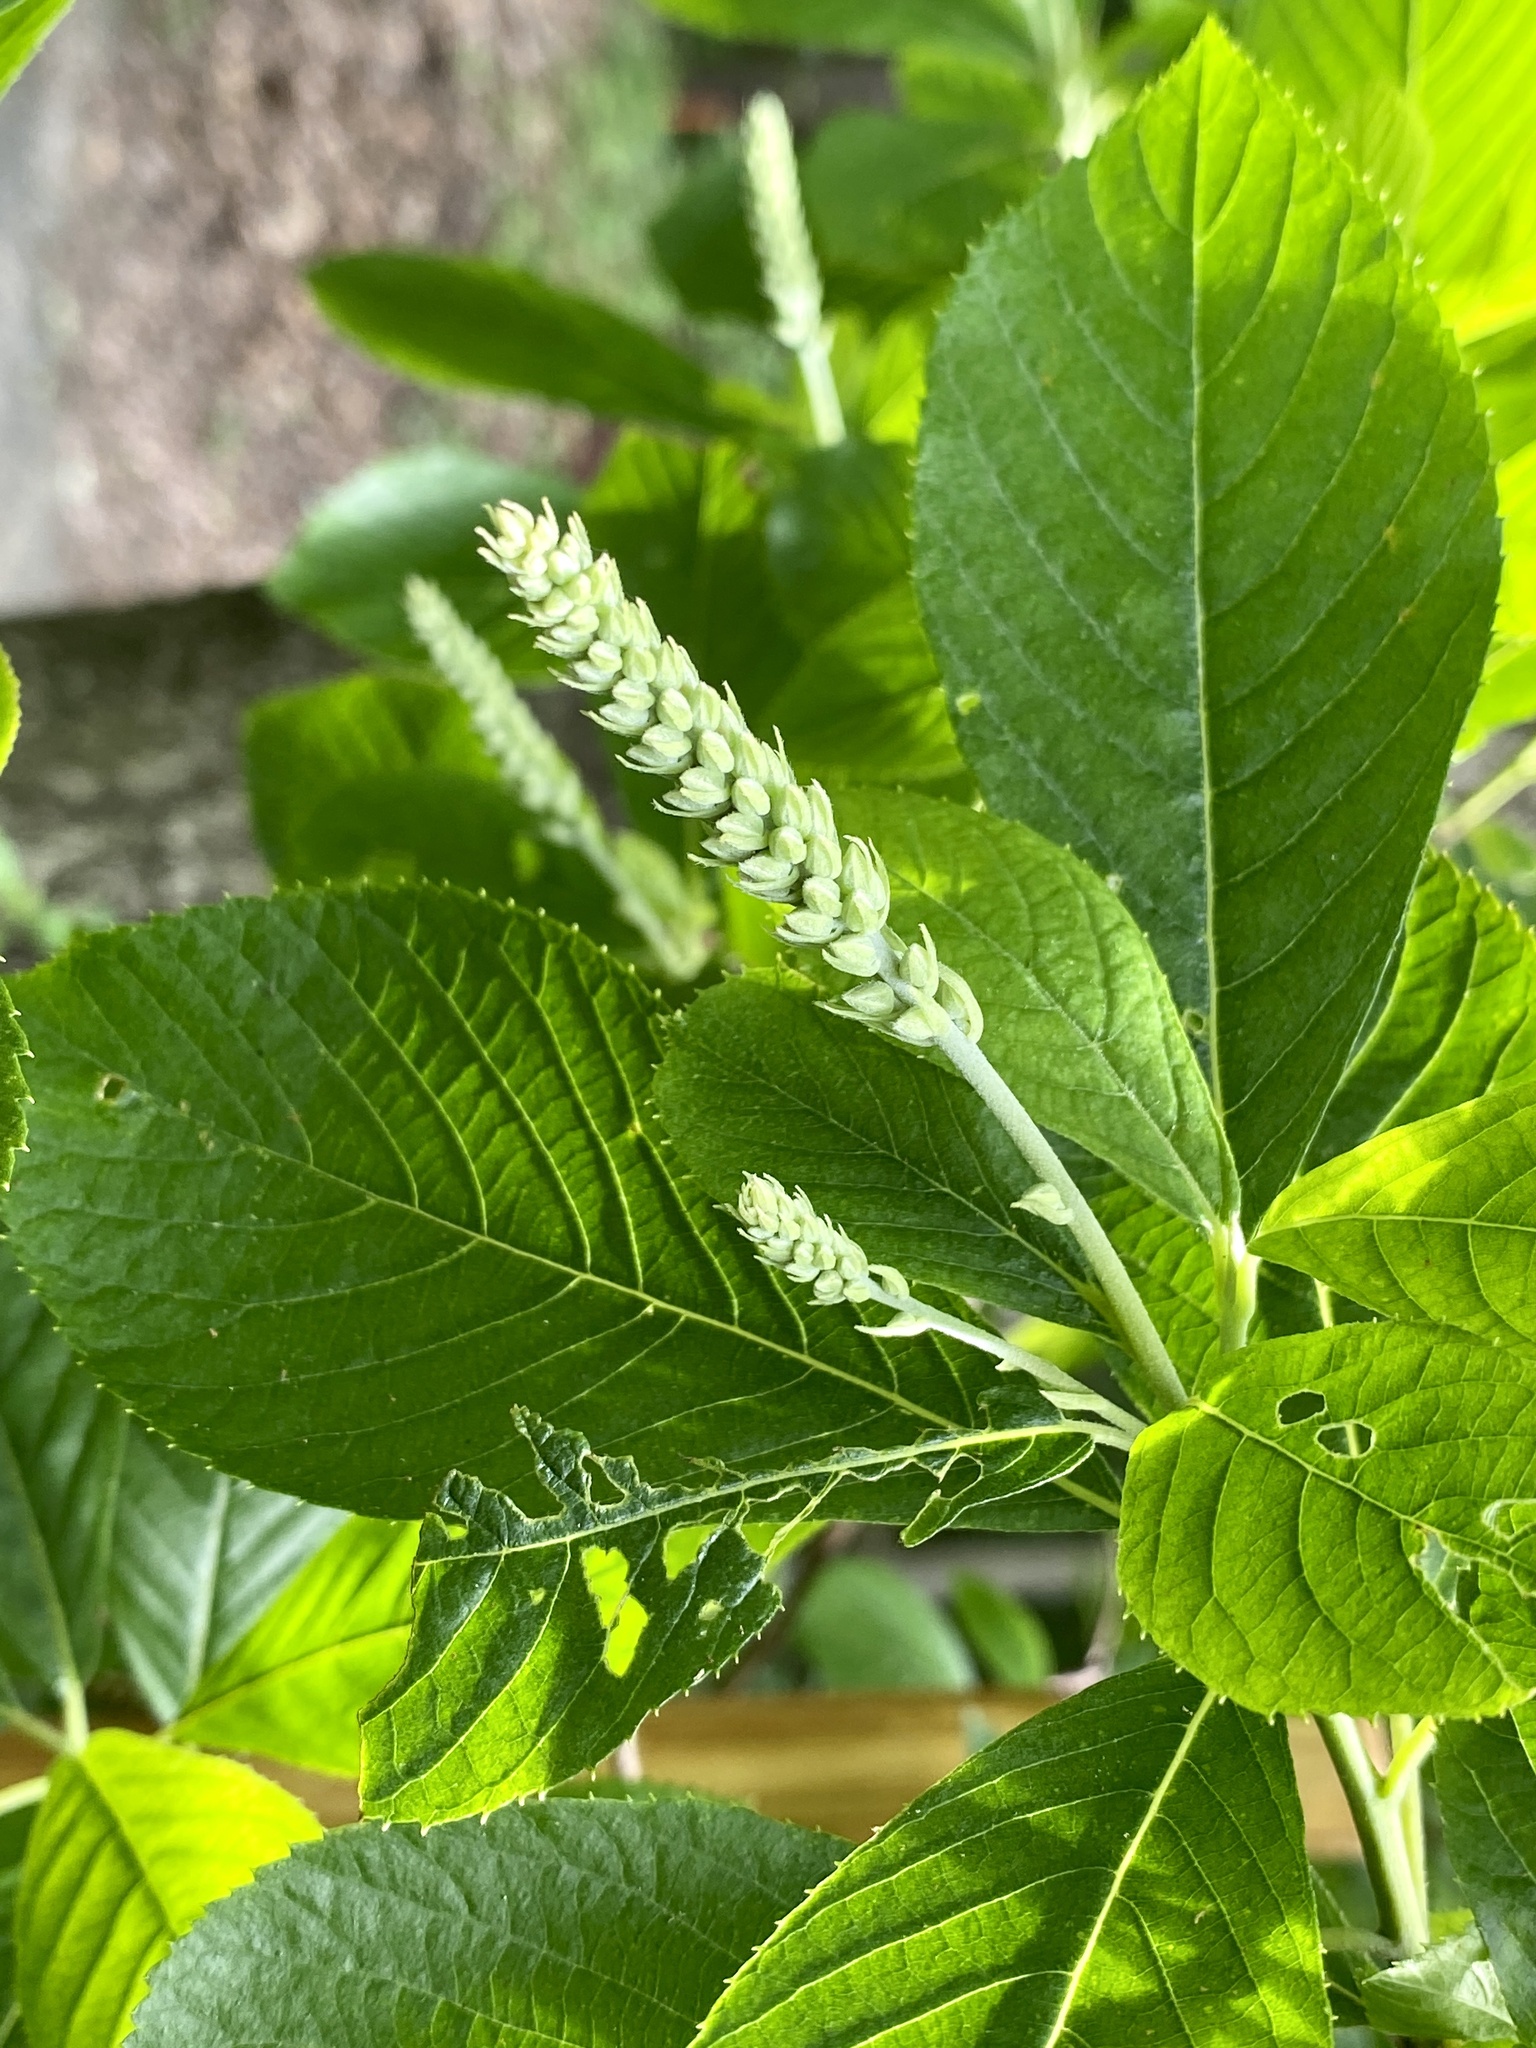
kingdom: Plantae
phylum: Tracheophyta
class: Magnoliopsida
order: Ericales
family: Clethraceae
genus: Clethra
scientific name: Clethra alnifolia
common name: Sweet pepperbush
